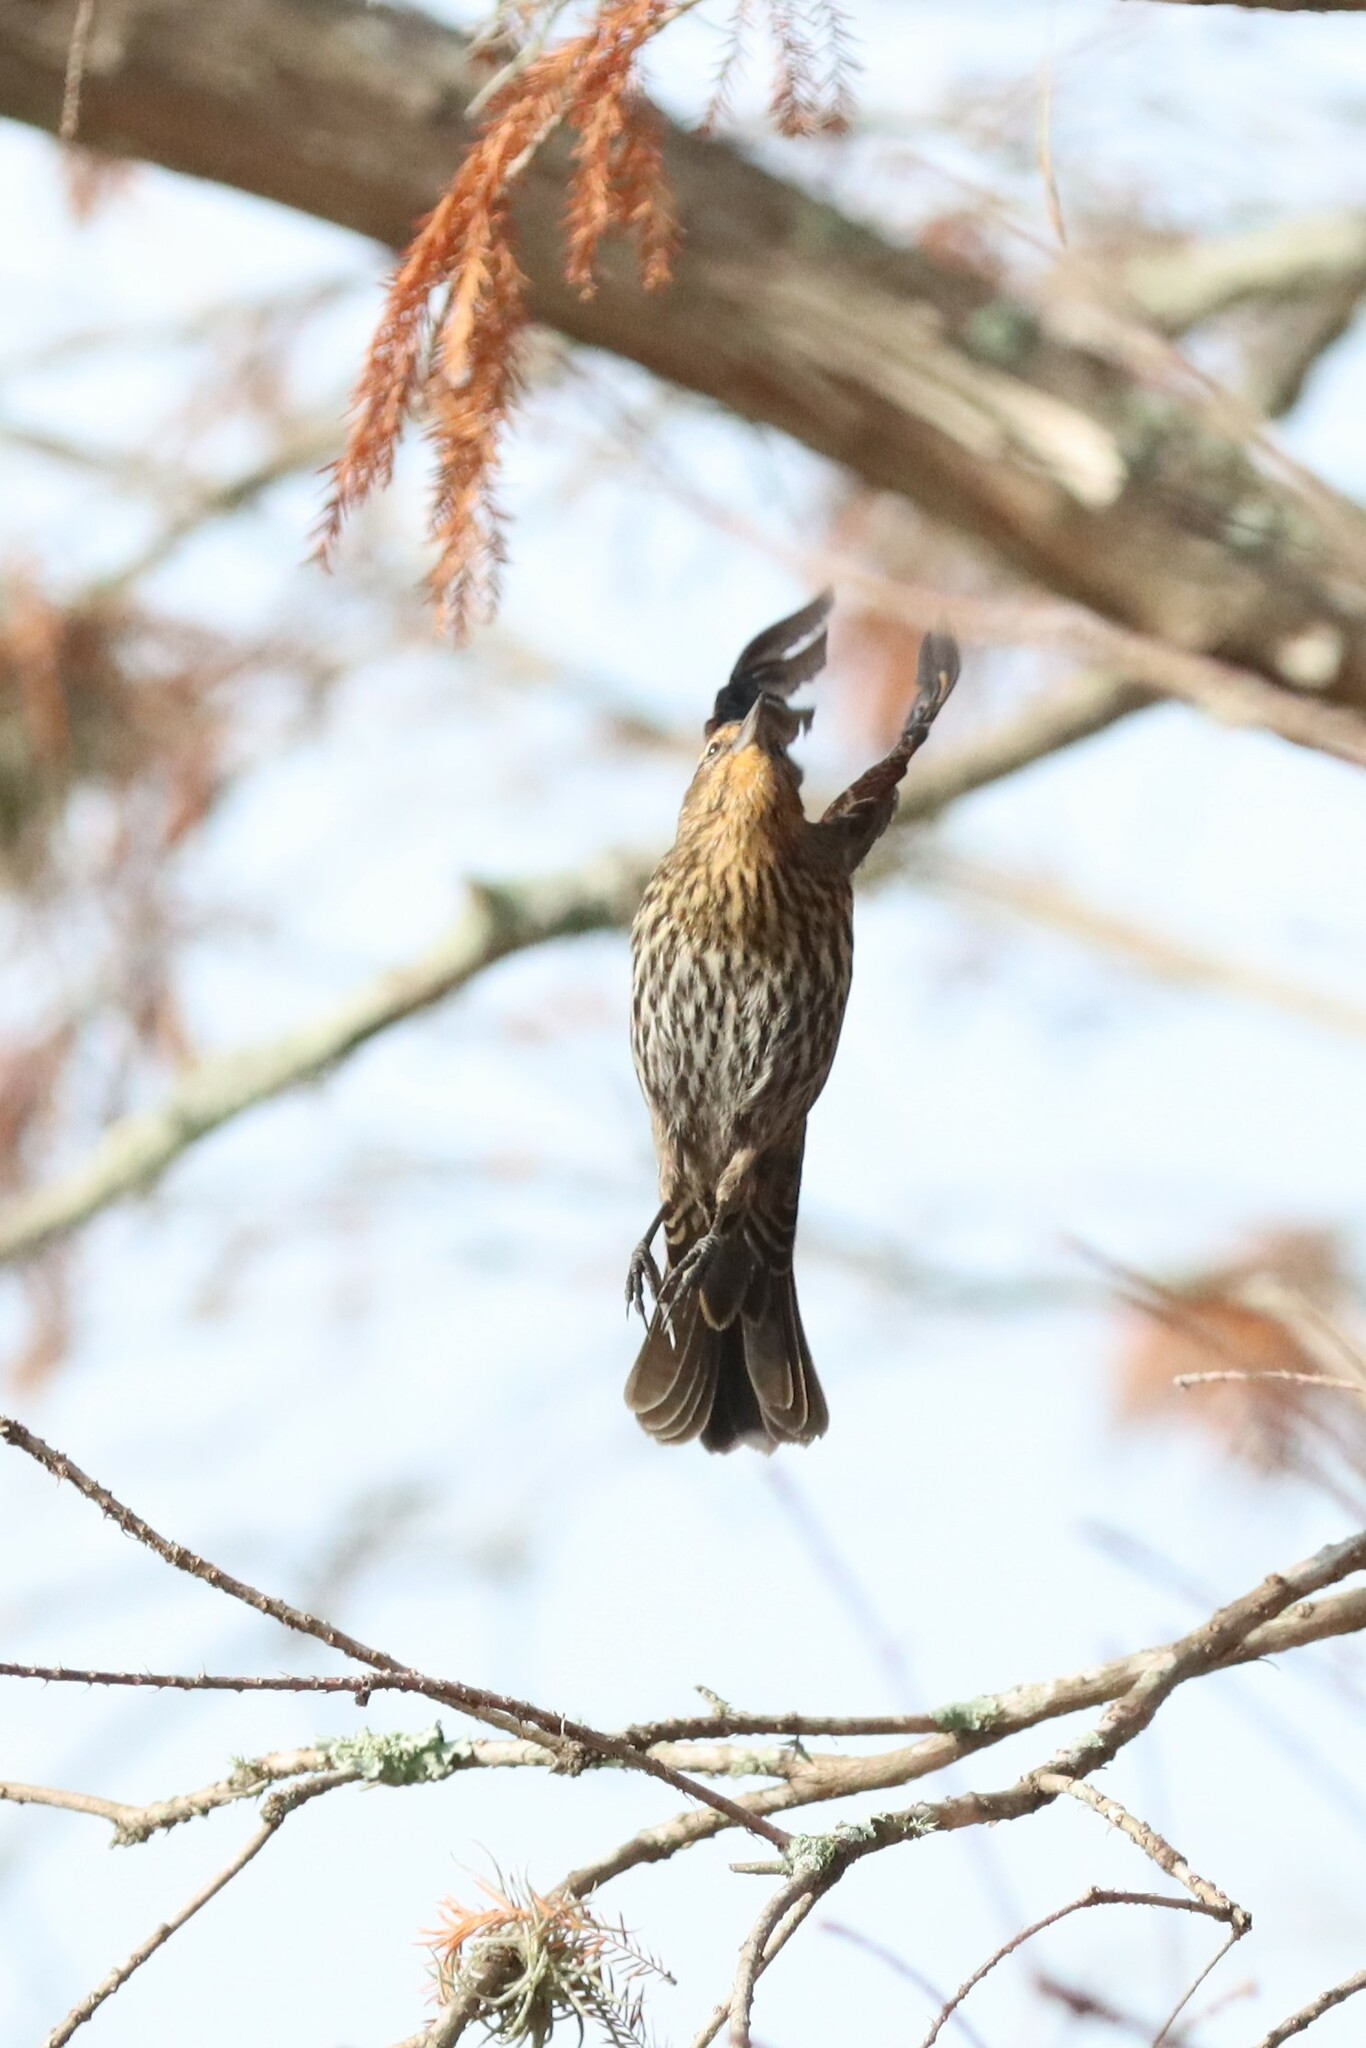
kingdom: Animalia
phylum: Chordata
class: Aves
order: Passeriformes
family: Icteridae
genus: Agelaius
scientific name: Agelaius phoeniceus
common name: Red-winged blackbird
